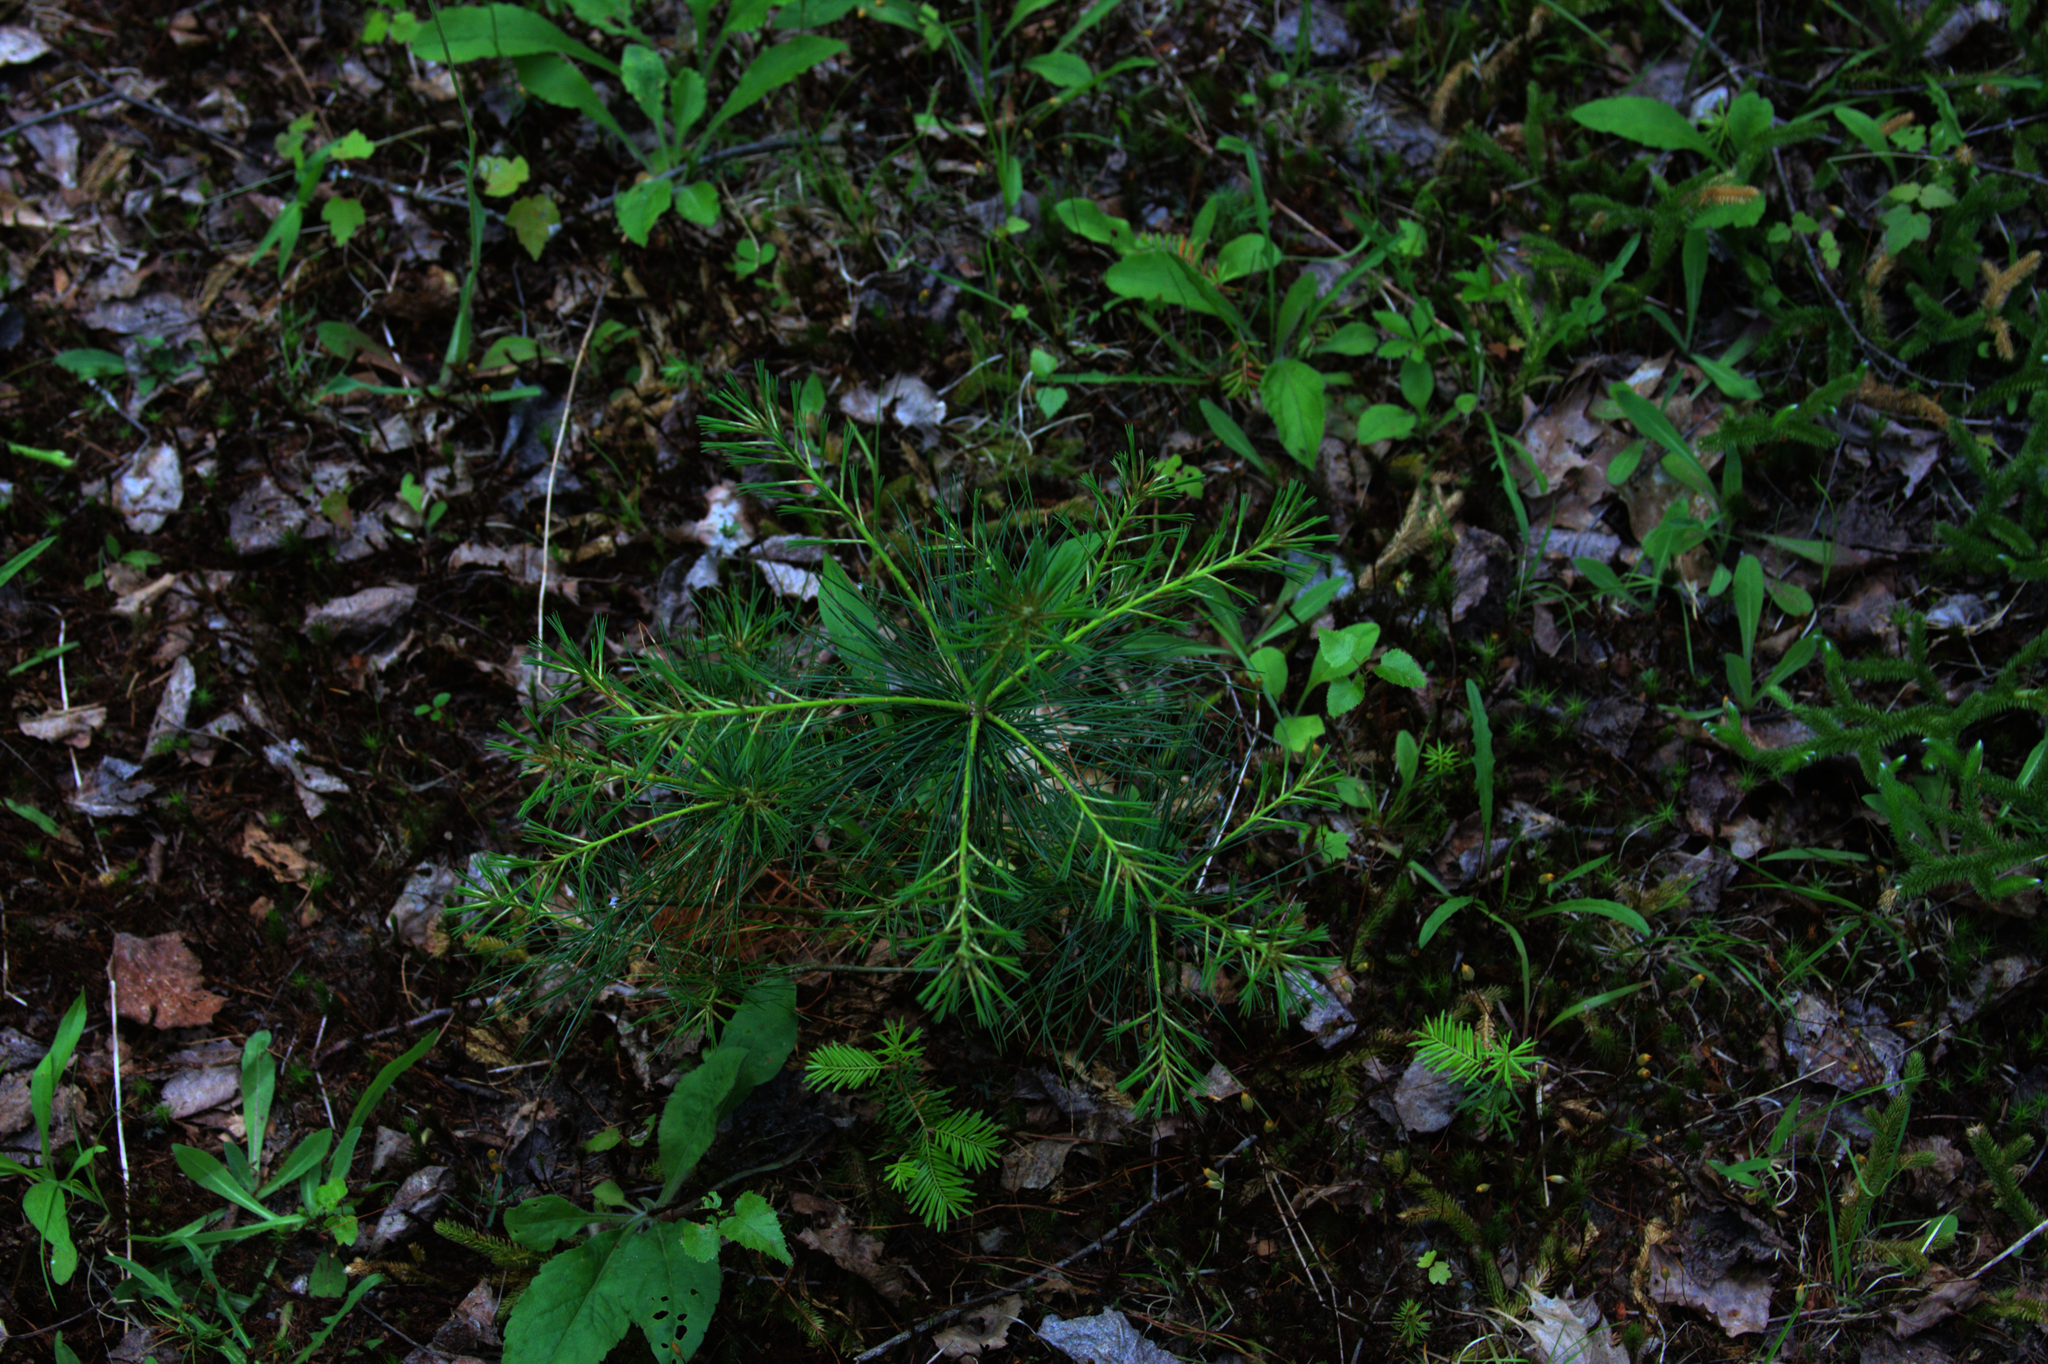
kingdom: Plantae
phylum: Tracheophyta
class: Pinopsida
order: Pinales
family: Pinaceae
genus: Pinus
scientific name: Pinus strobus
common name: Weymouth pine
